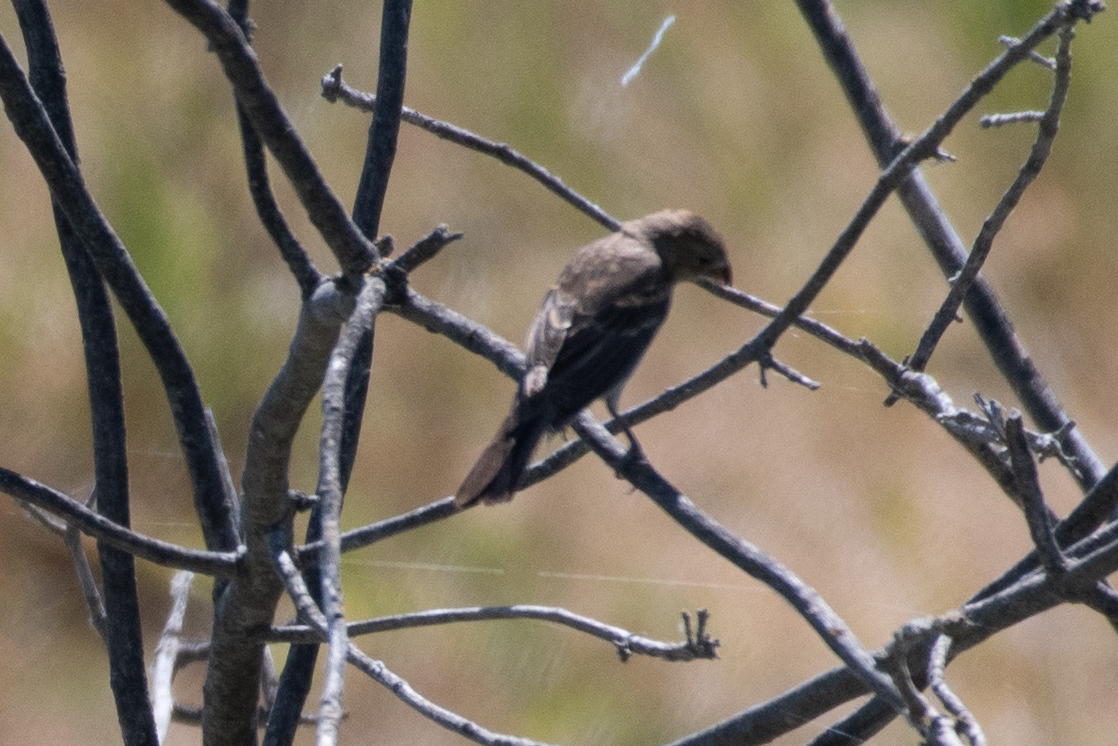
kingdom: Animalia
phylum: Chordata
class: Aves
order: Passeriformes
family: Cardinalidae
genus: Passerina
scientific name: Passerina amoena
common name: Lazuli bunting
